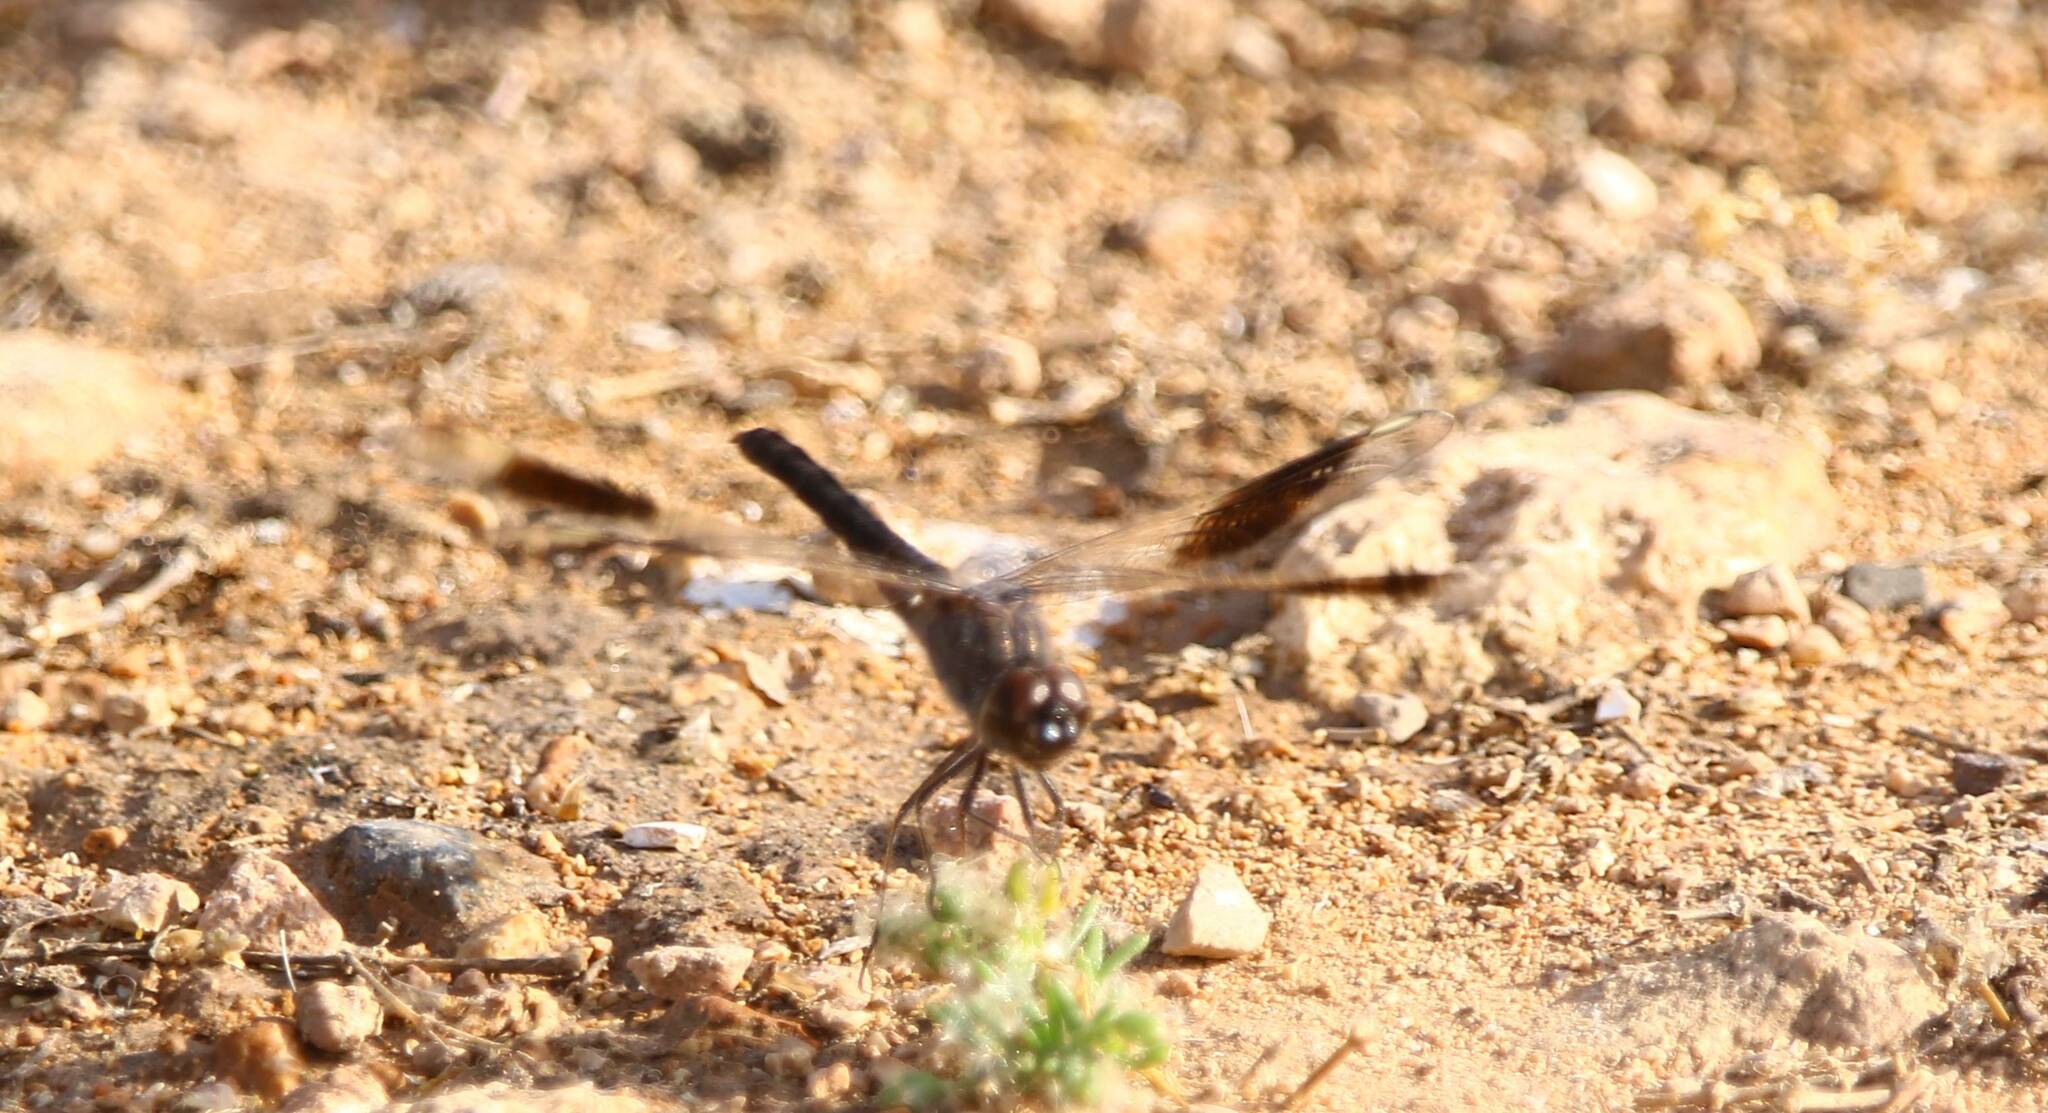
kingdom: Animalia
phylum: Arthropoda
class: Insecta
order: Odonata
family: Libellulidae
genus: Brachythemis
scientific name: Brachythemis impartita
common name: Banded groundling
